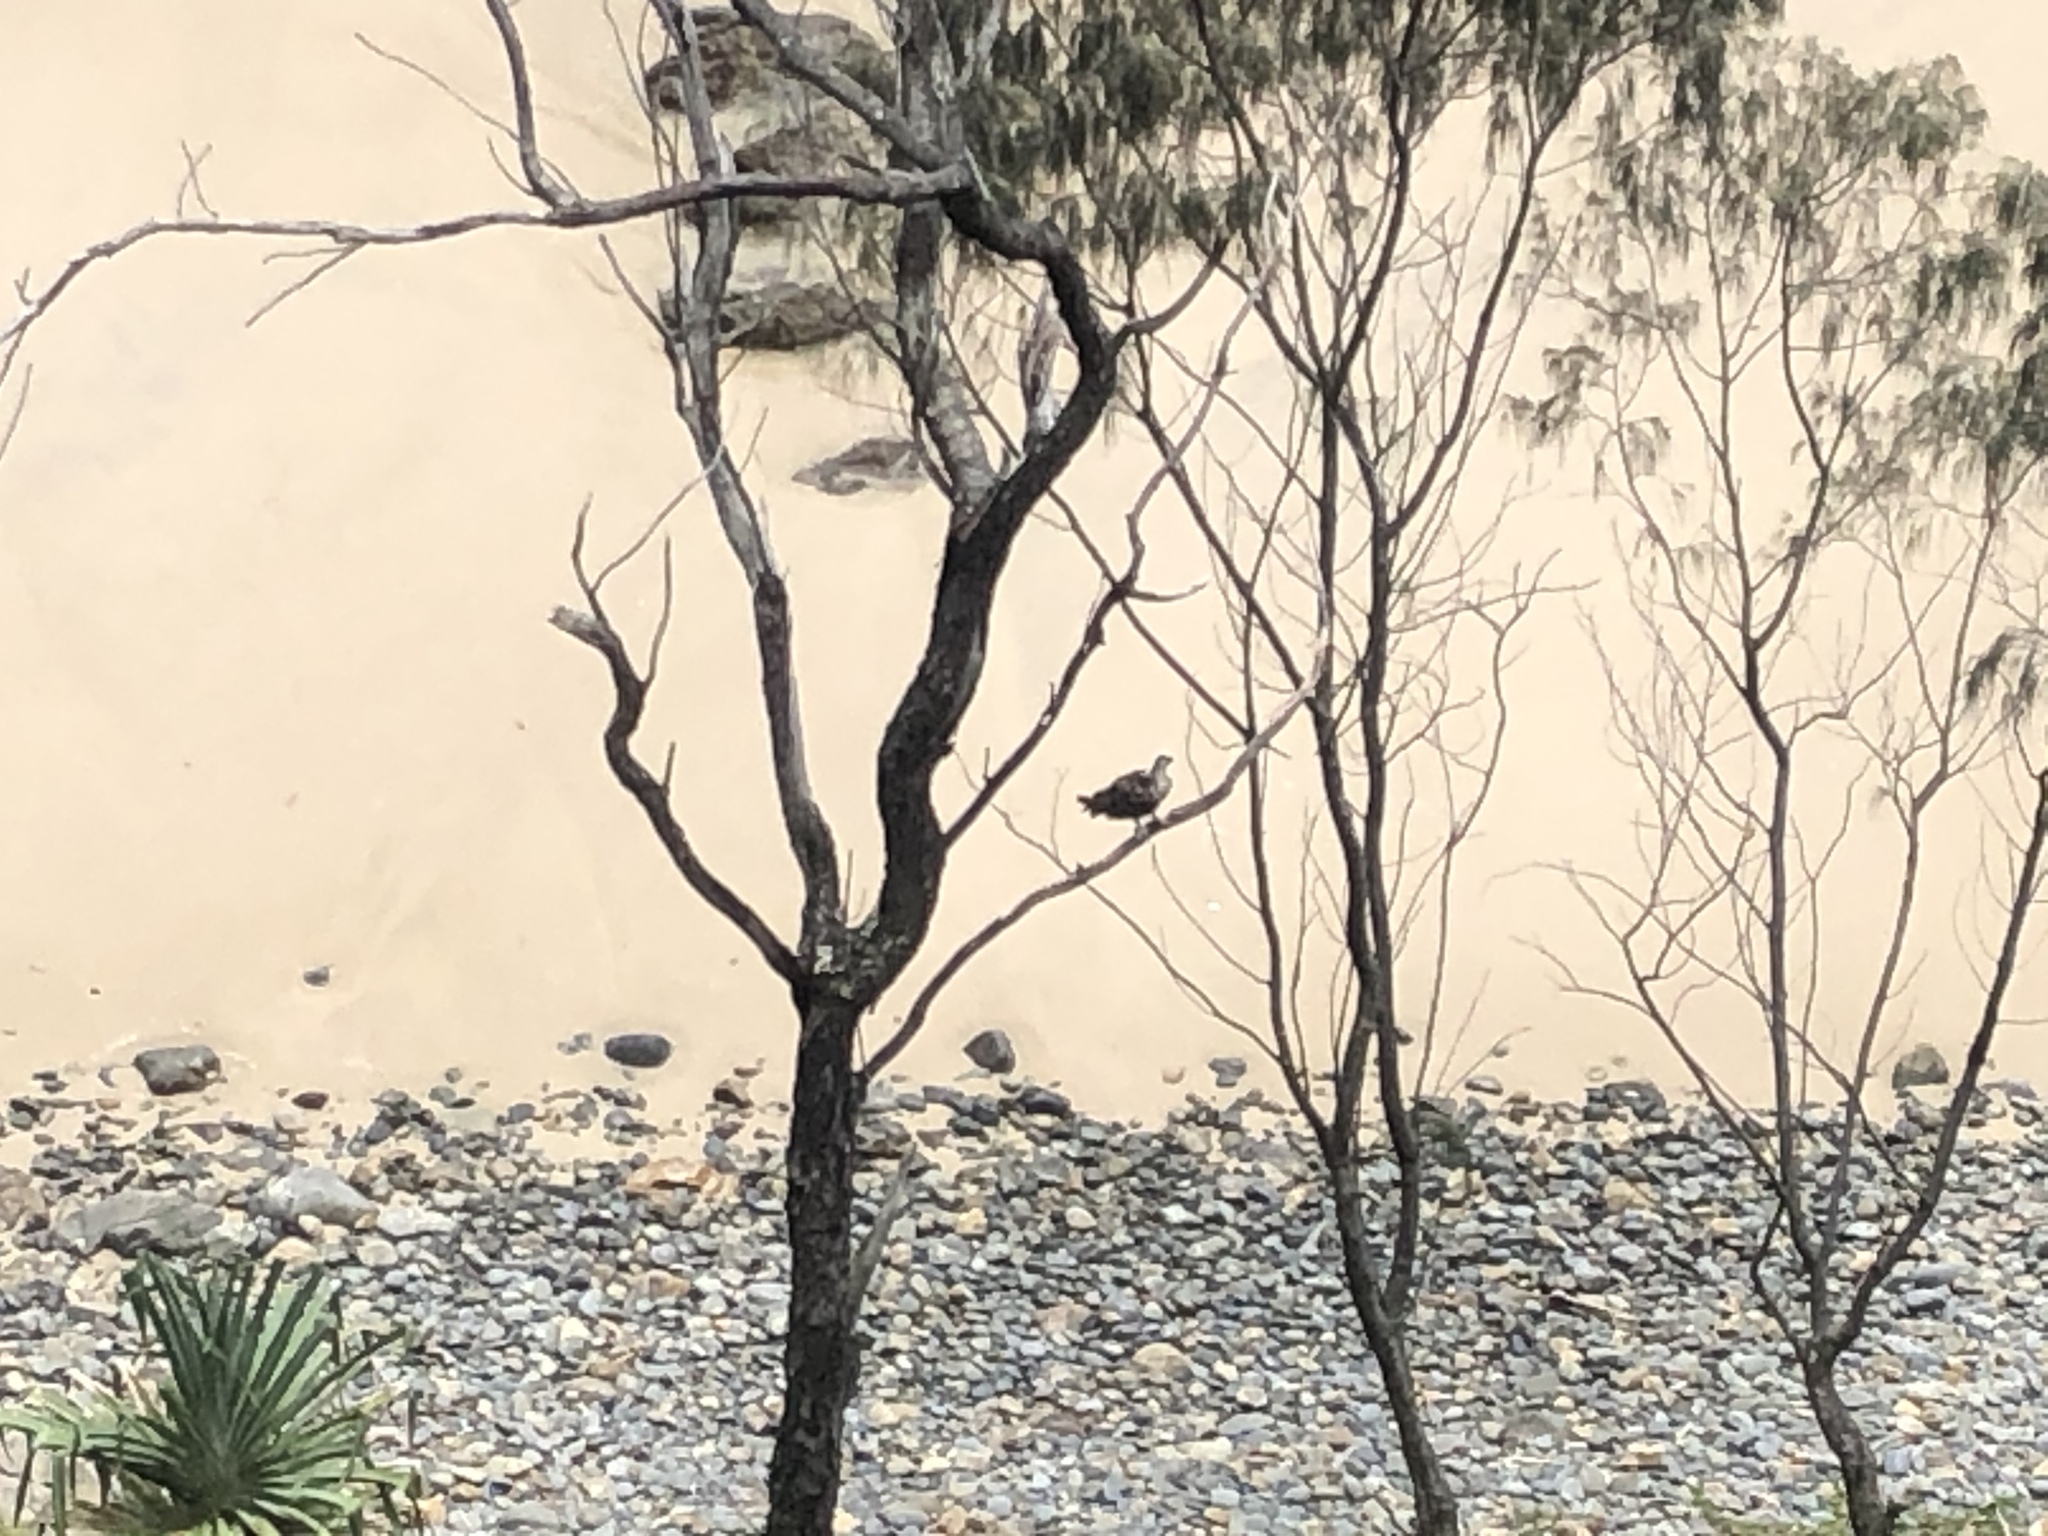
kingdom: Animalia
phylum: Chordata
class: Aves
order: Accipitriformes
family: Pandionidae
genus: Pandion
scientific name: Pandion cristatus
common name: Eastern osprey
